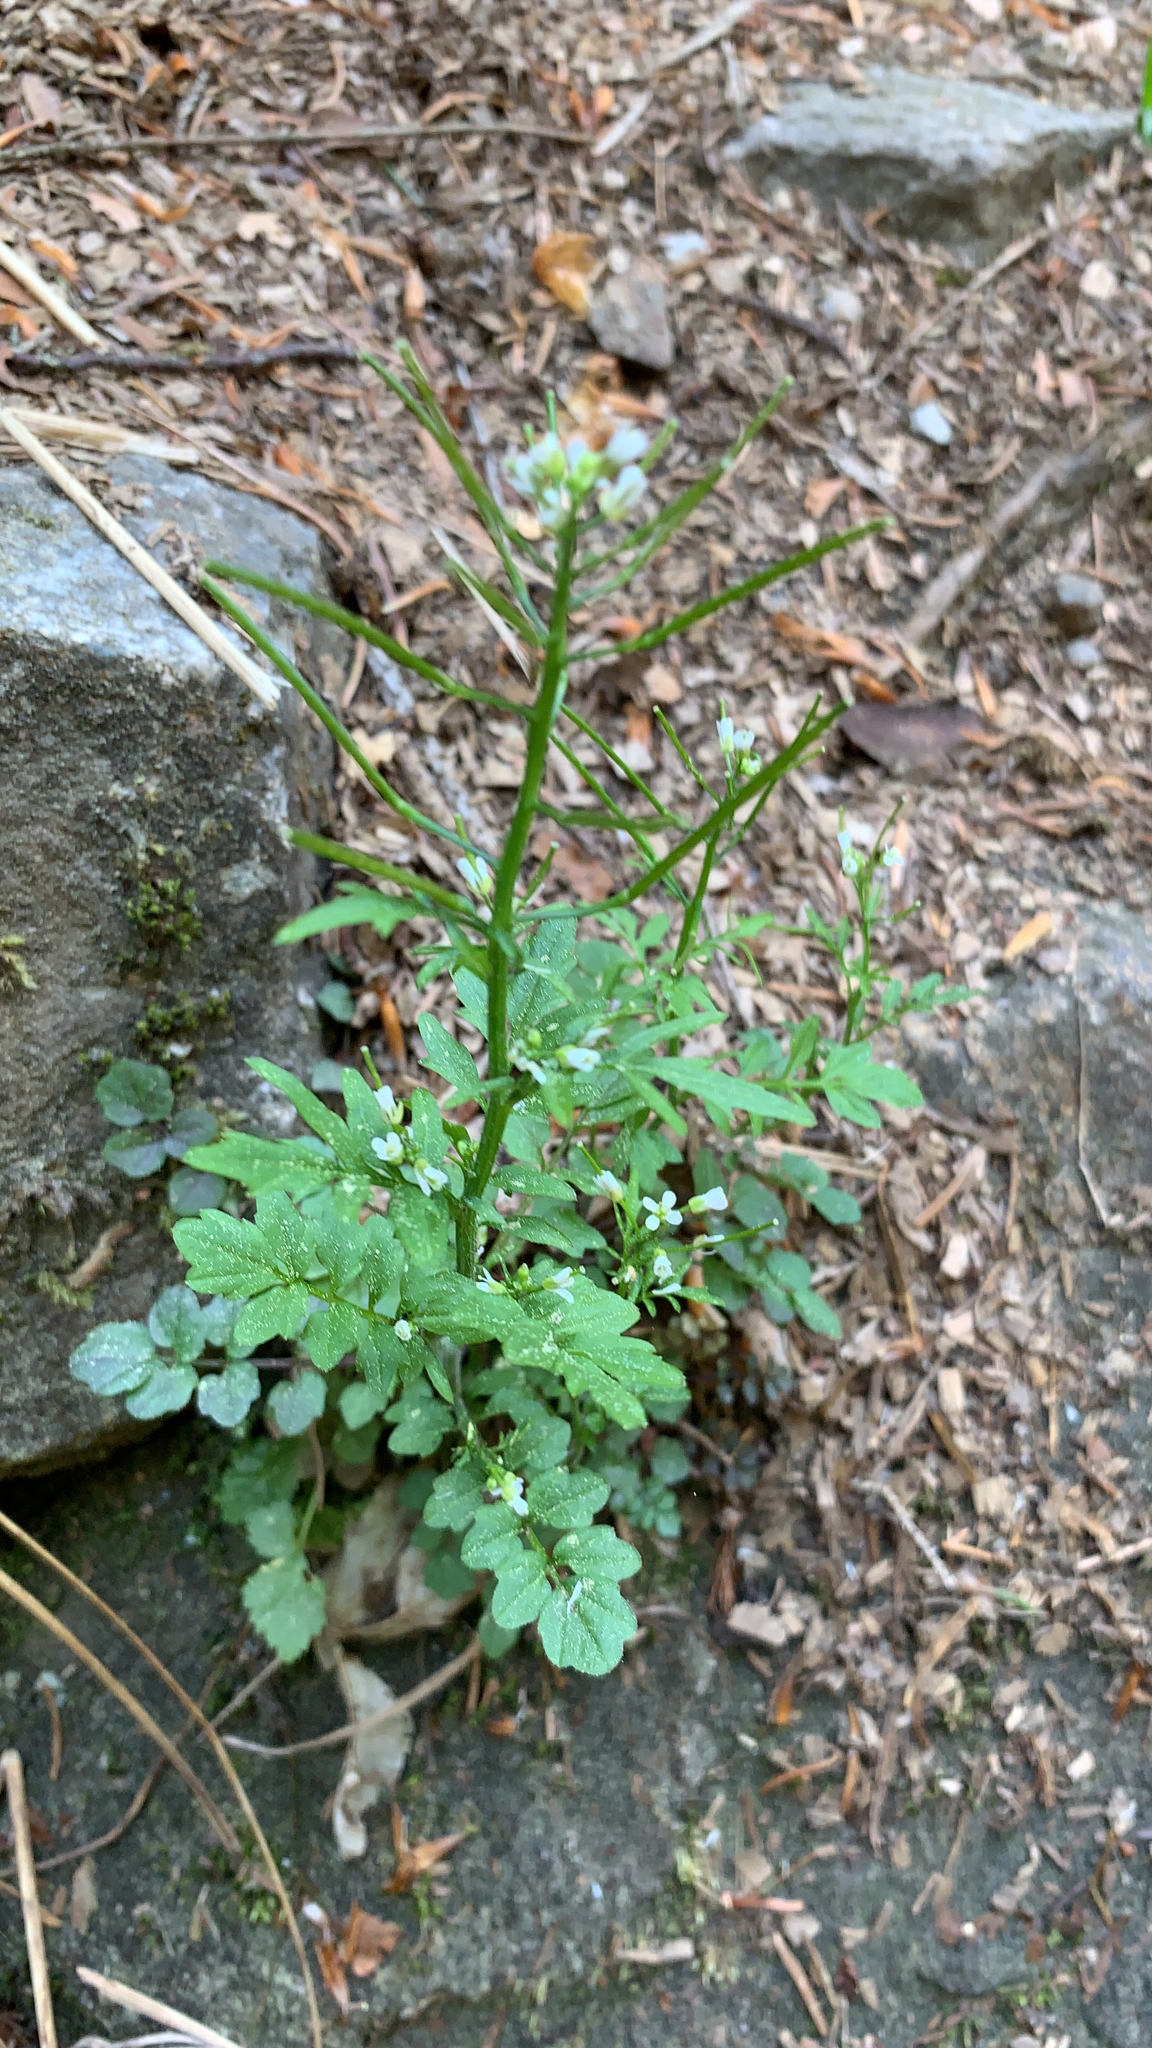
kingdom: Plantae
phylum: Tracheophyta
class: Magnoliopsida
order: Brassicales
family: Brassicaceae
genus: Cardamine
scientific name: Cardamine flexuosa
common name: Woodland bittercress
